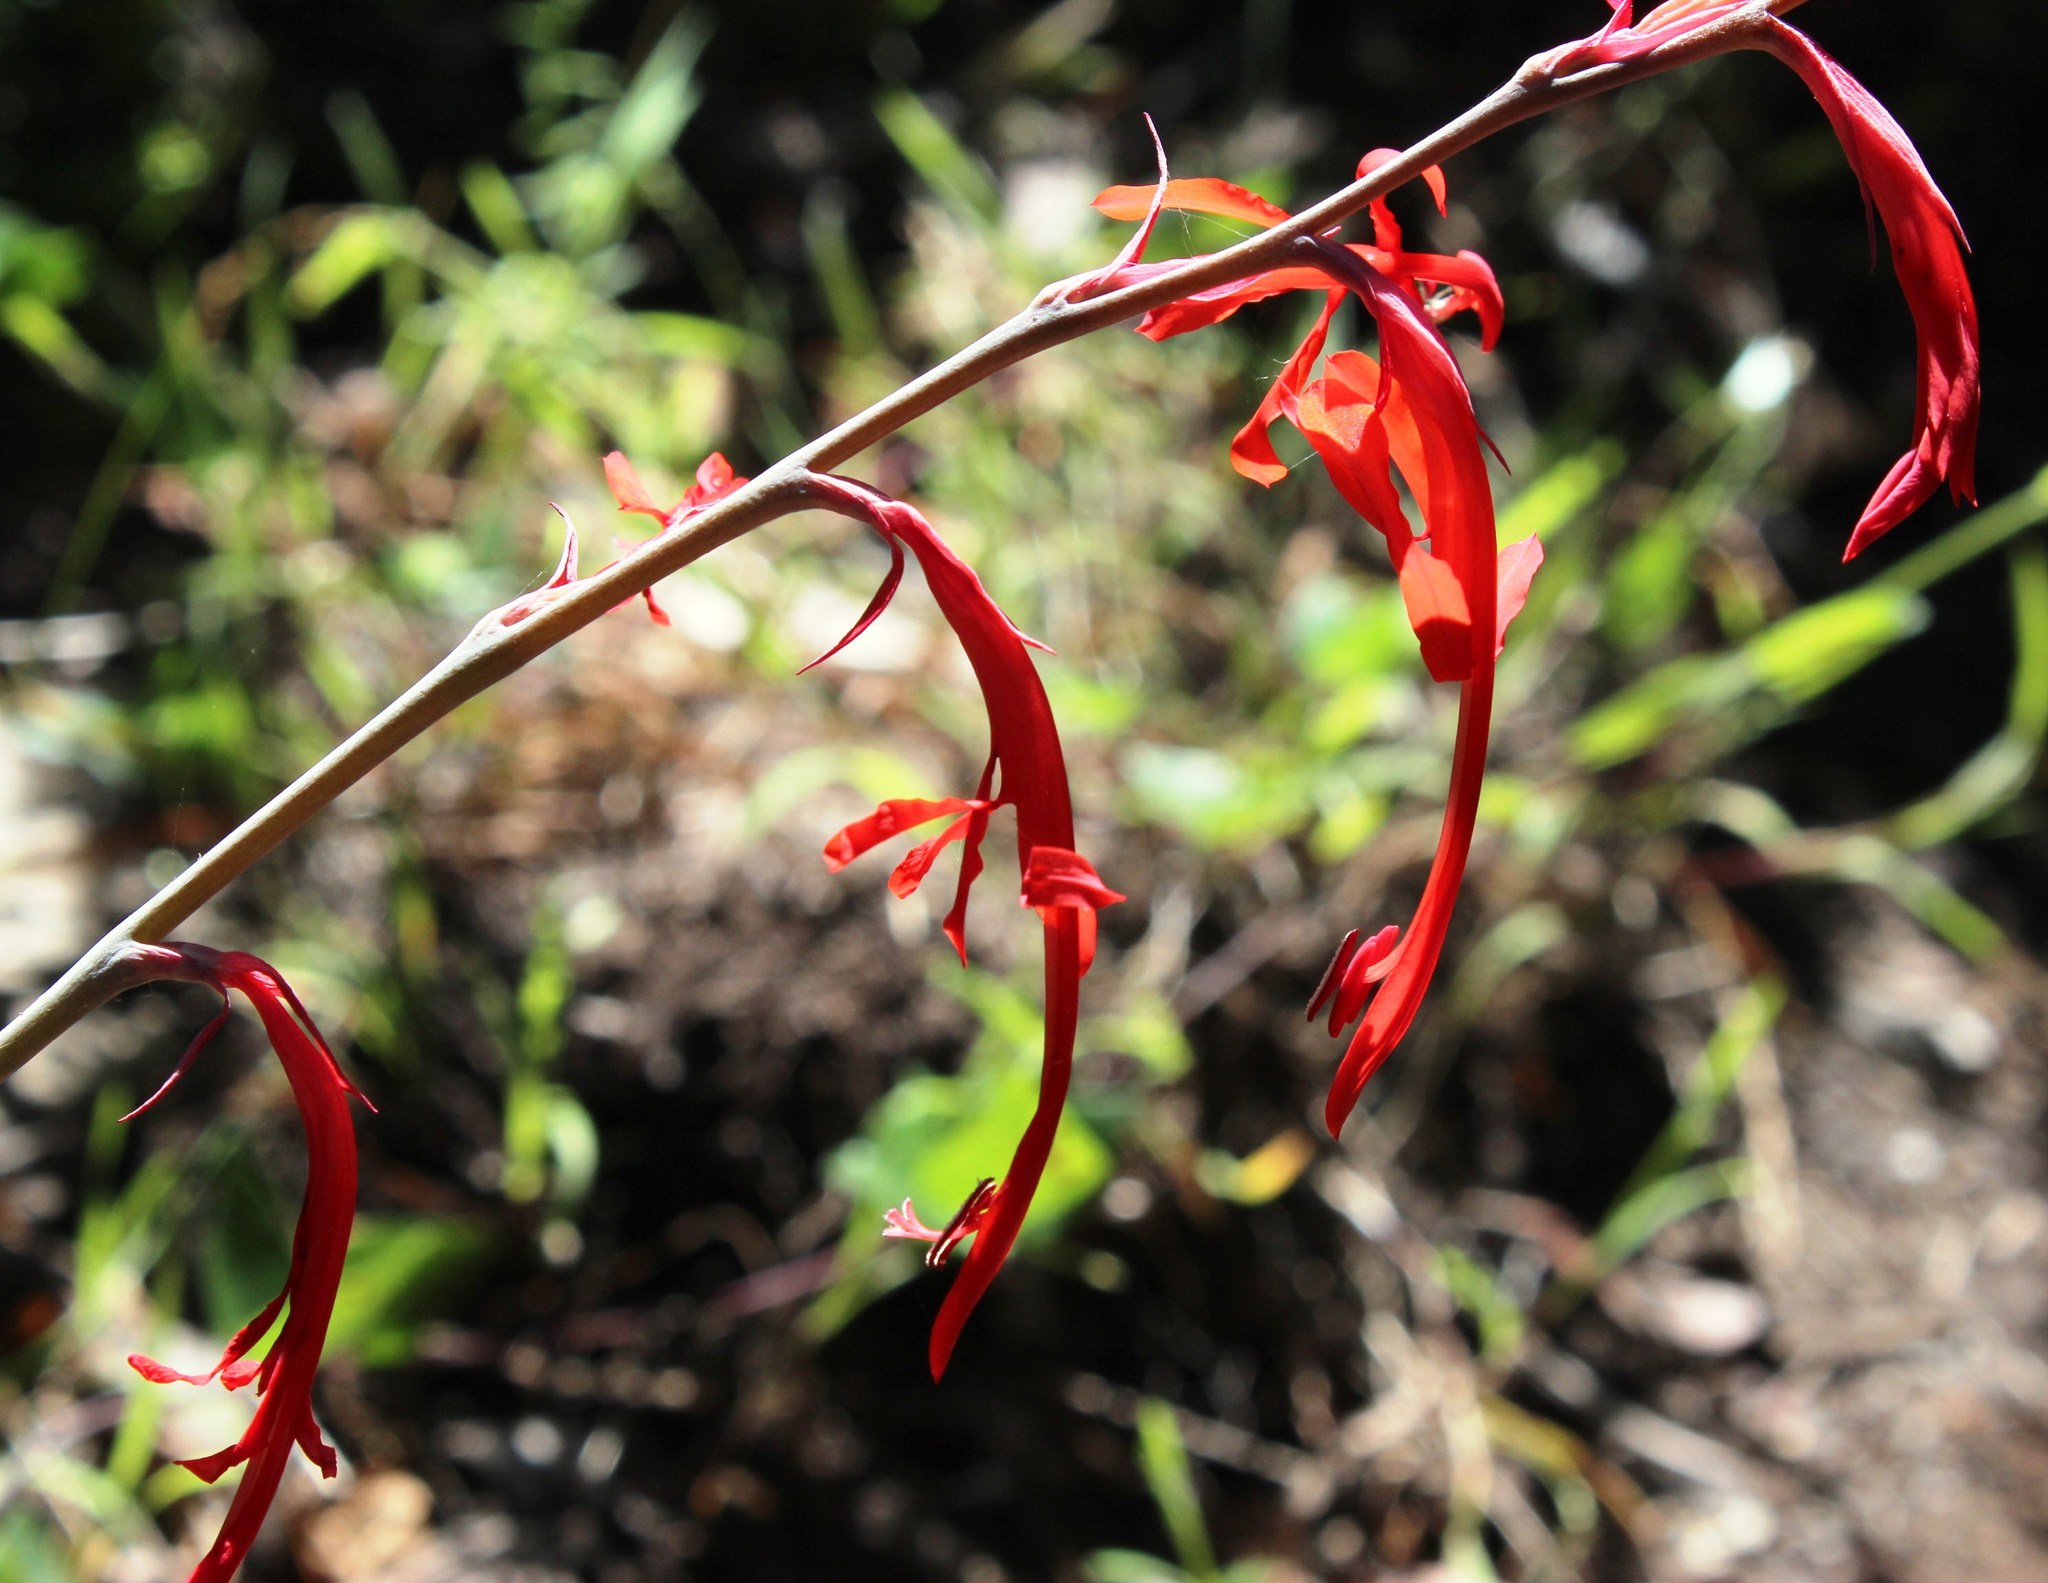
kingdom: Plantae
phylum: Tracheophyta
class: Liliopsida
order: Asparagales
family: Iridaceae
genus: Tritoniopsis
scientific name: Tritoniopsis caffra
